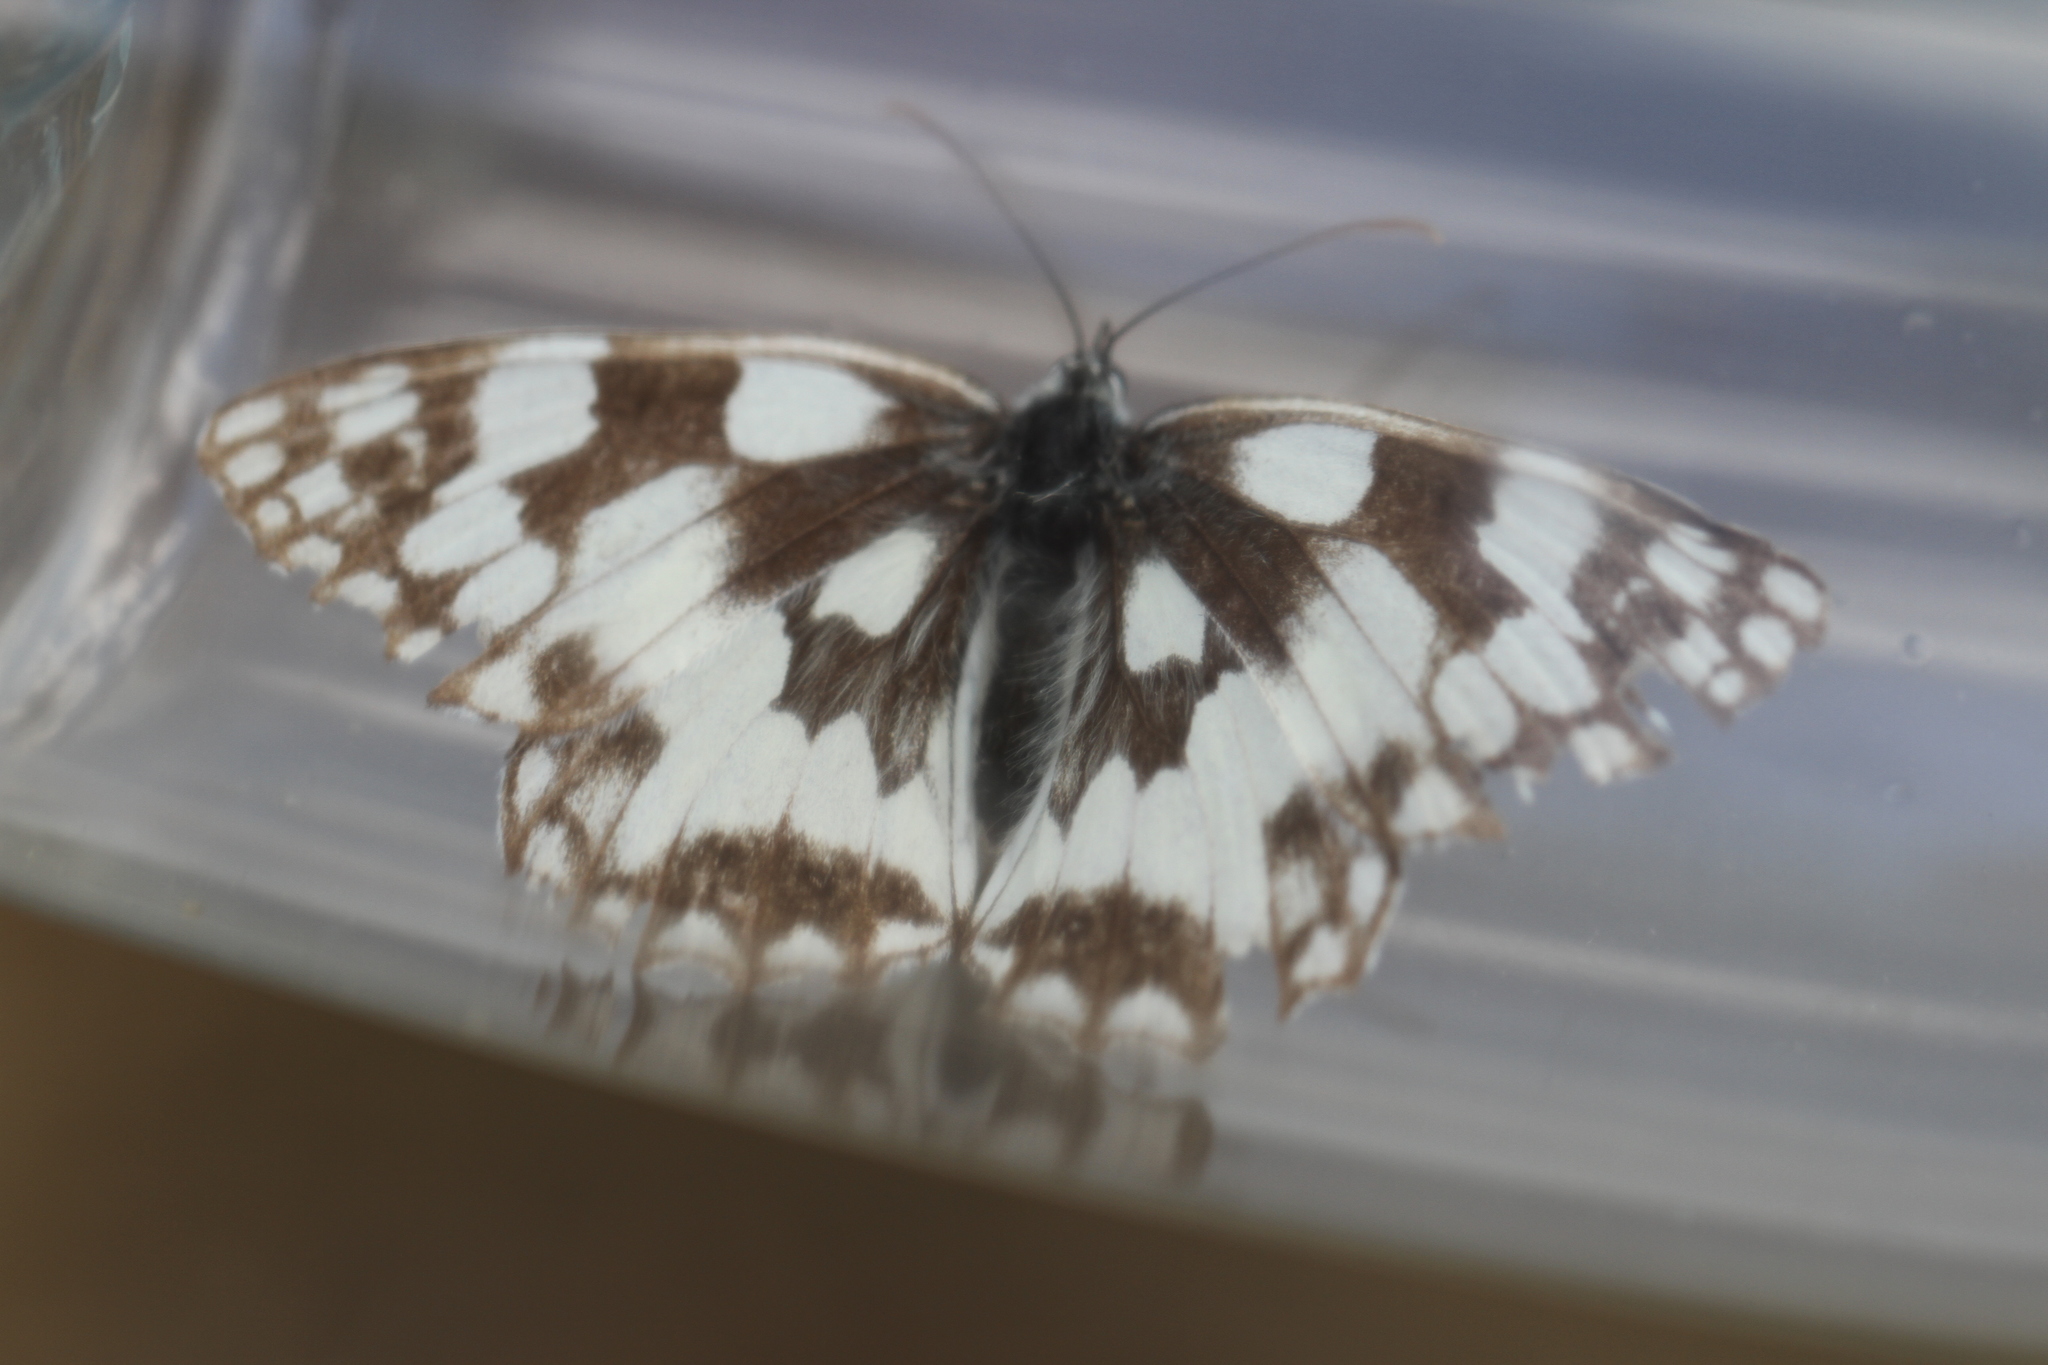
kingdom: Animalia
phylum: Arthropoda
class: Insecta
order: Lepidoptera
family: Nymphalidae
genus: Melanargia
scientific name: Melanargia galathea
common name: Marbled white
